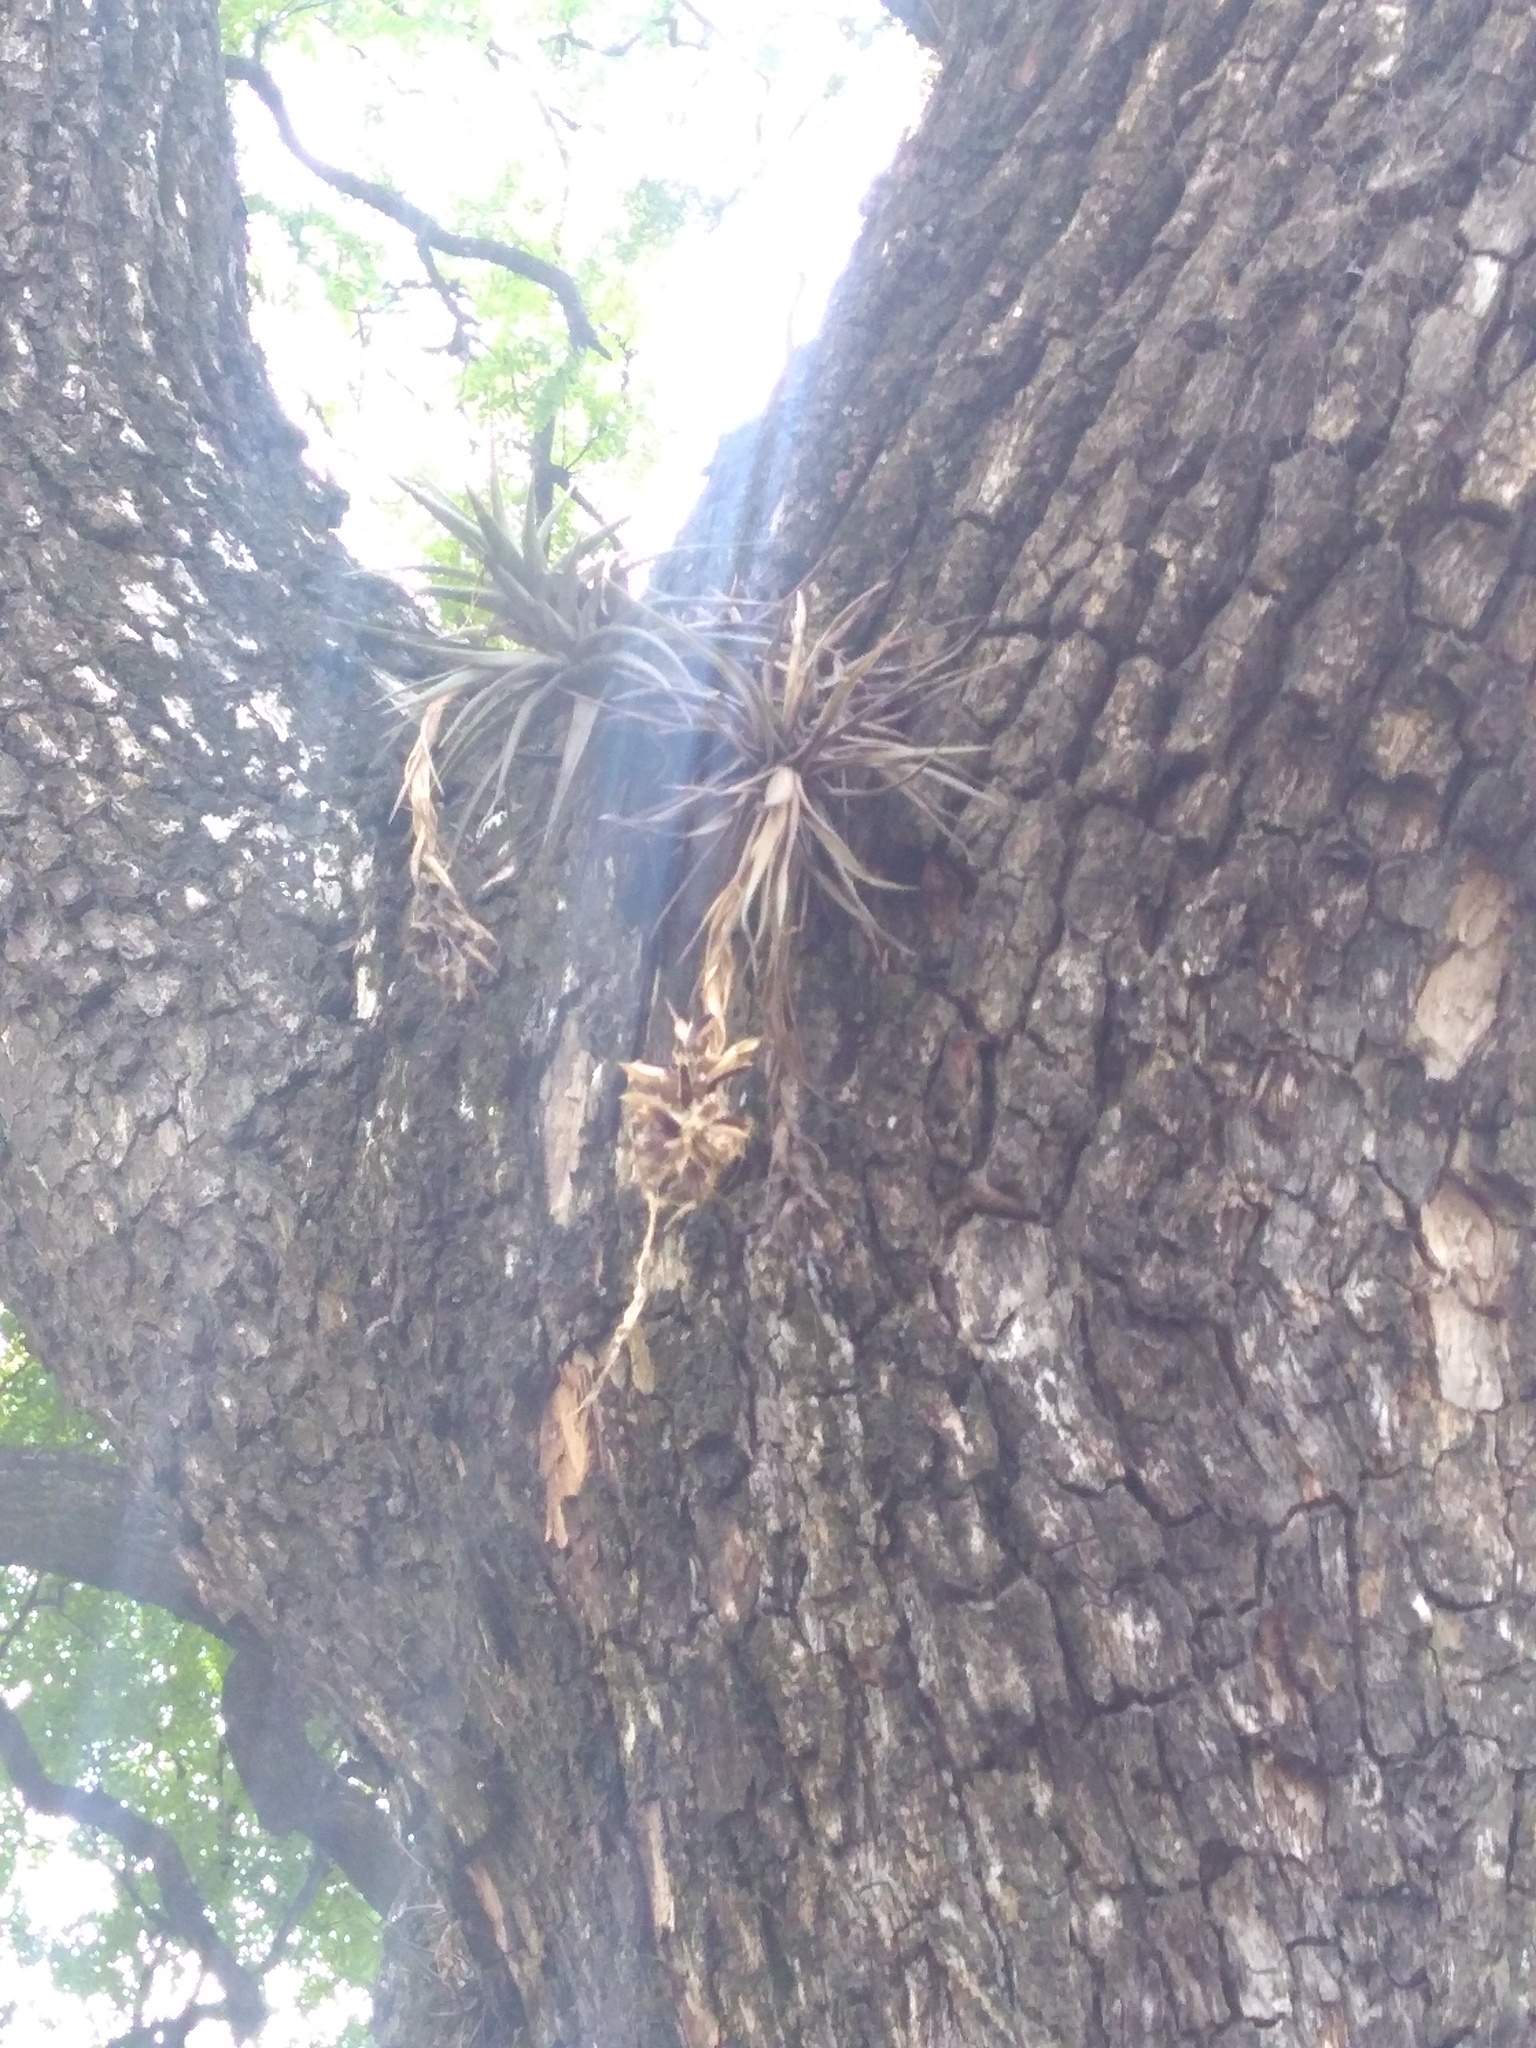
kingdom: Plantae
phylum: Tracheophyta
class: Liliopsida
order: Poales
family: Bromeliaceae
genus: Tillandsia
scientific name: Tillandsia aeranthos
